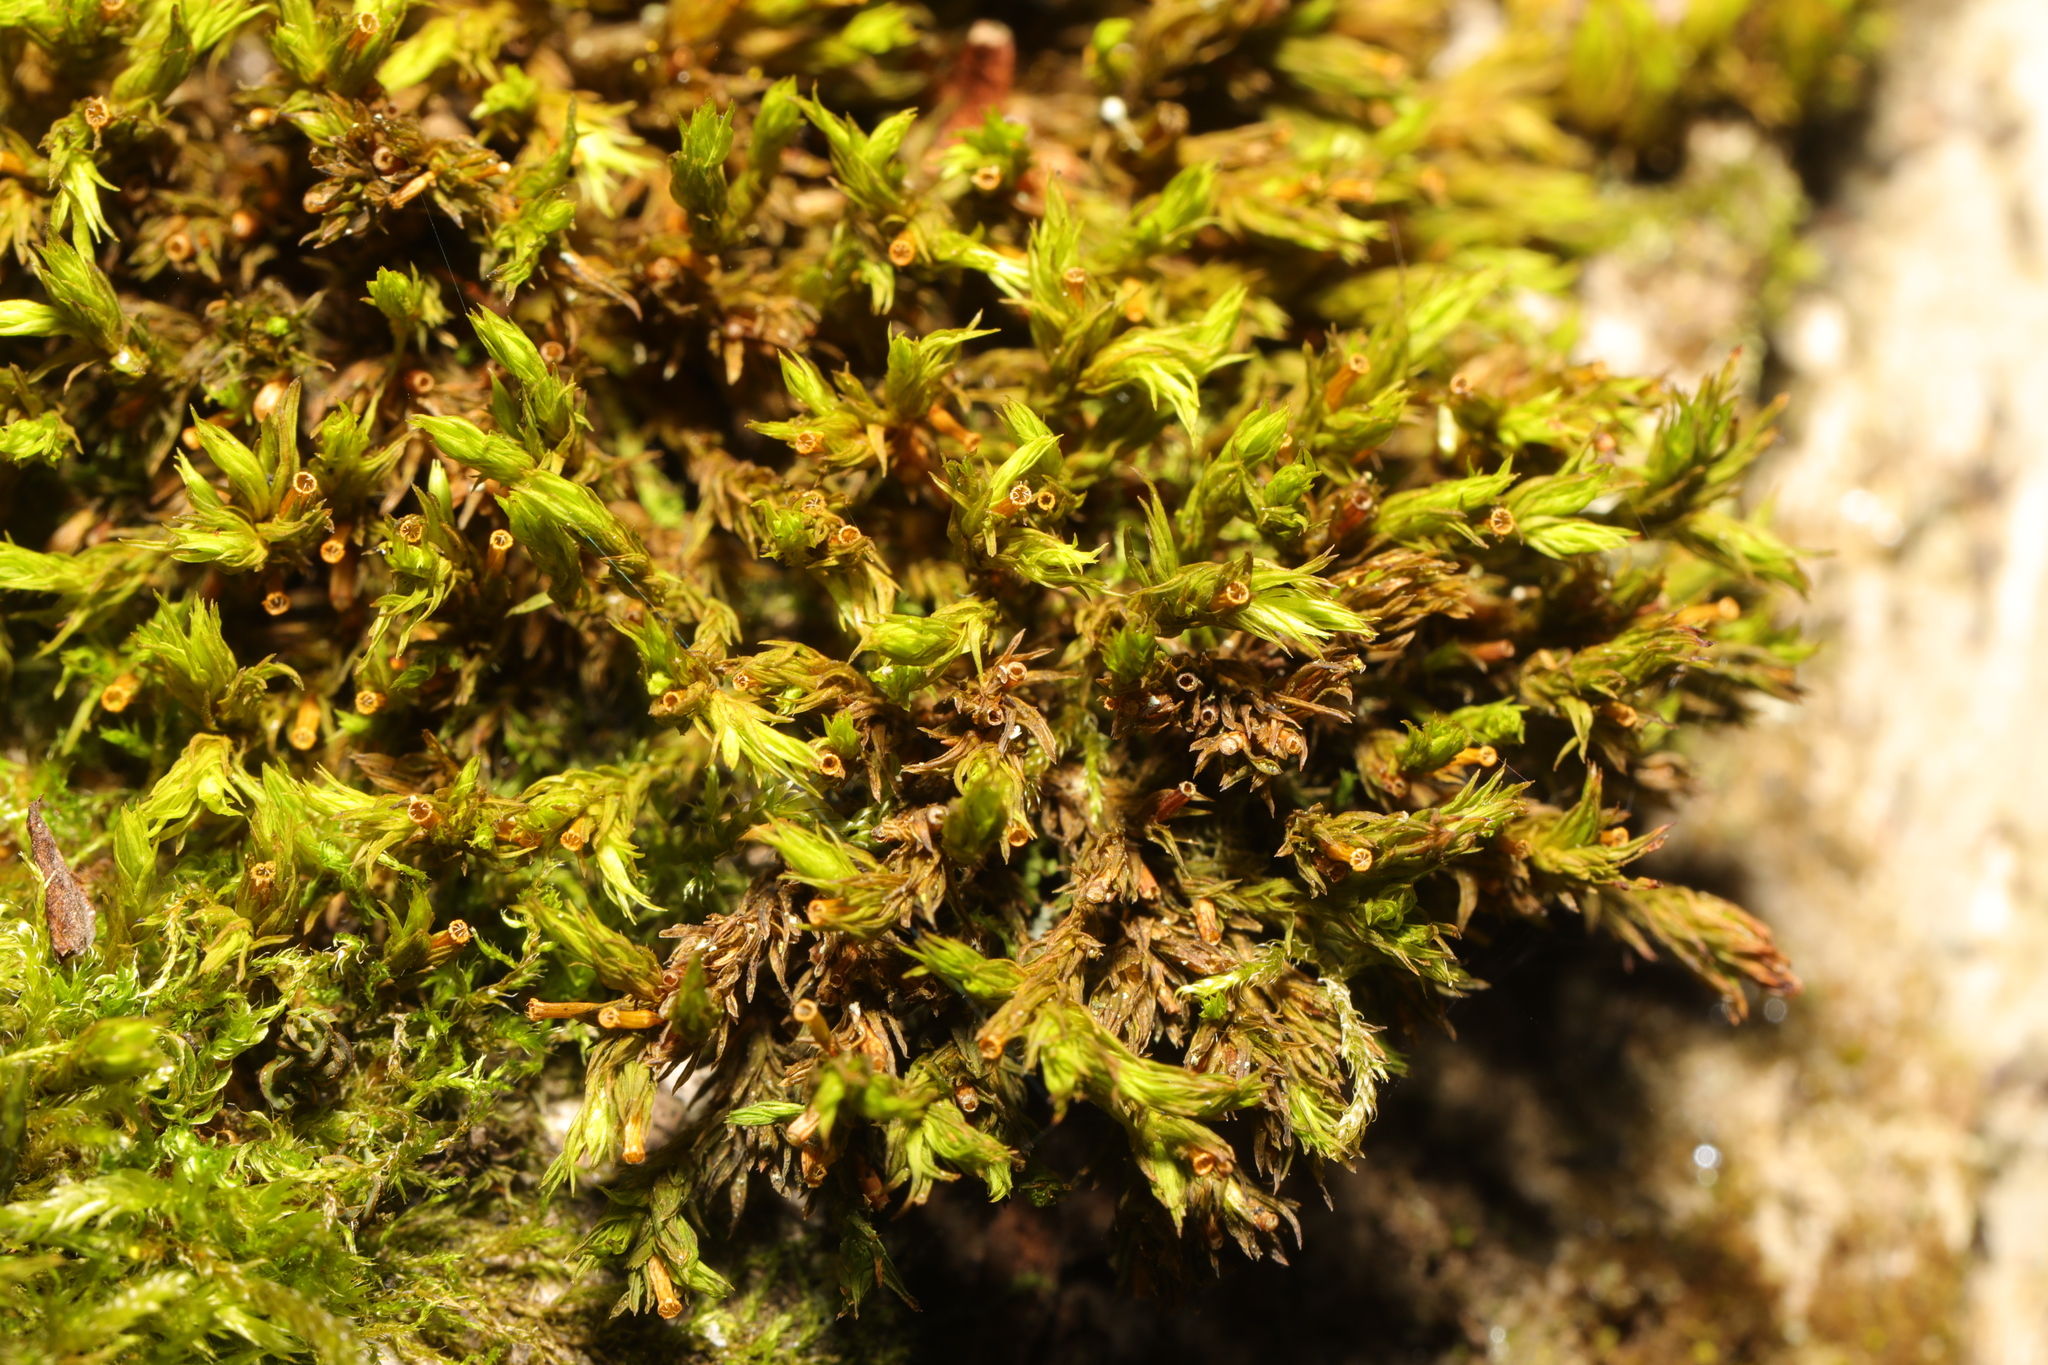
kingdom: Plantae
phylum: Bryophyta
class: Bryopsida
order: Orthotrichales
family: Orthotrichaceae
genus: Lewinskya
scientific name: Lewinskya affinis
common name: Wood bristle-moss
